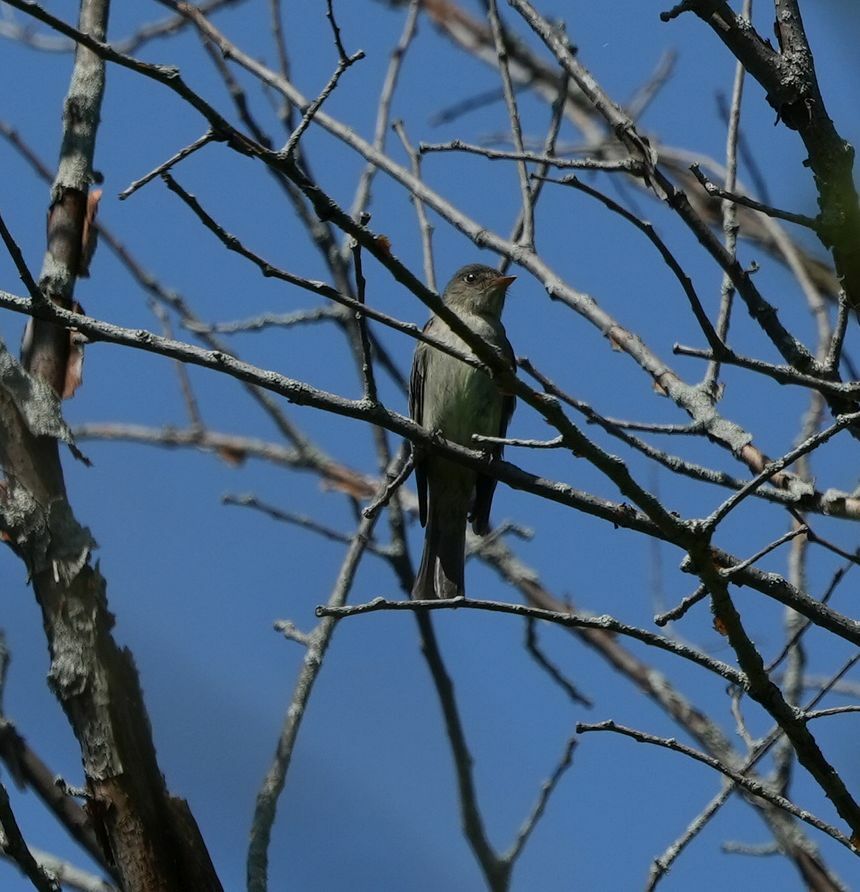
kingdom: Animalia
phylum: Chordata
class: Aves
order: Passeriformes
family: Tyrannidae
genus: Contopus
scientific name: Contopus virens
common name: Eastern wood-pewee
